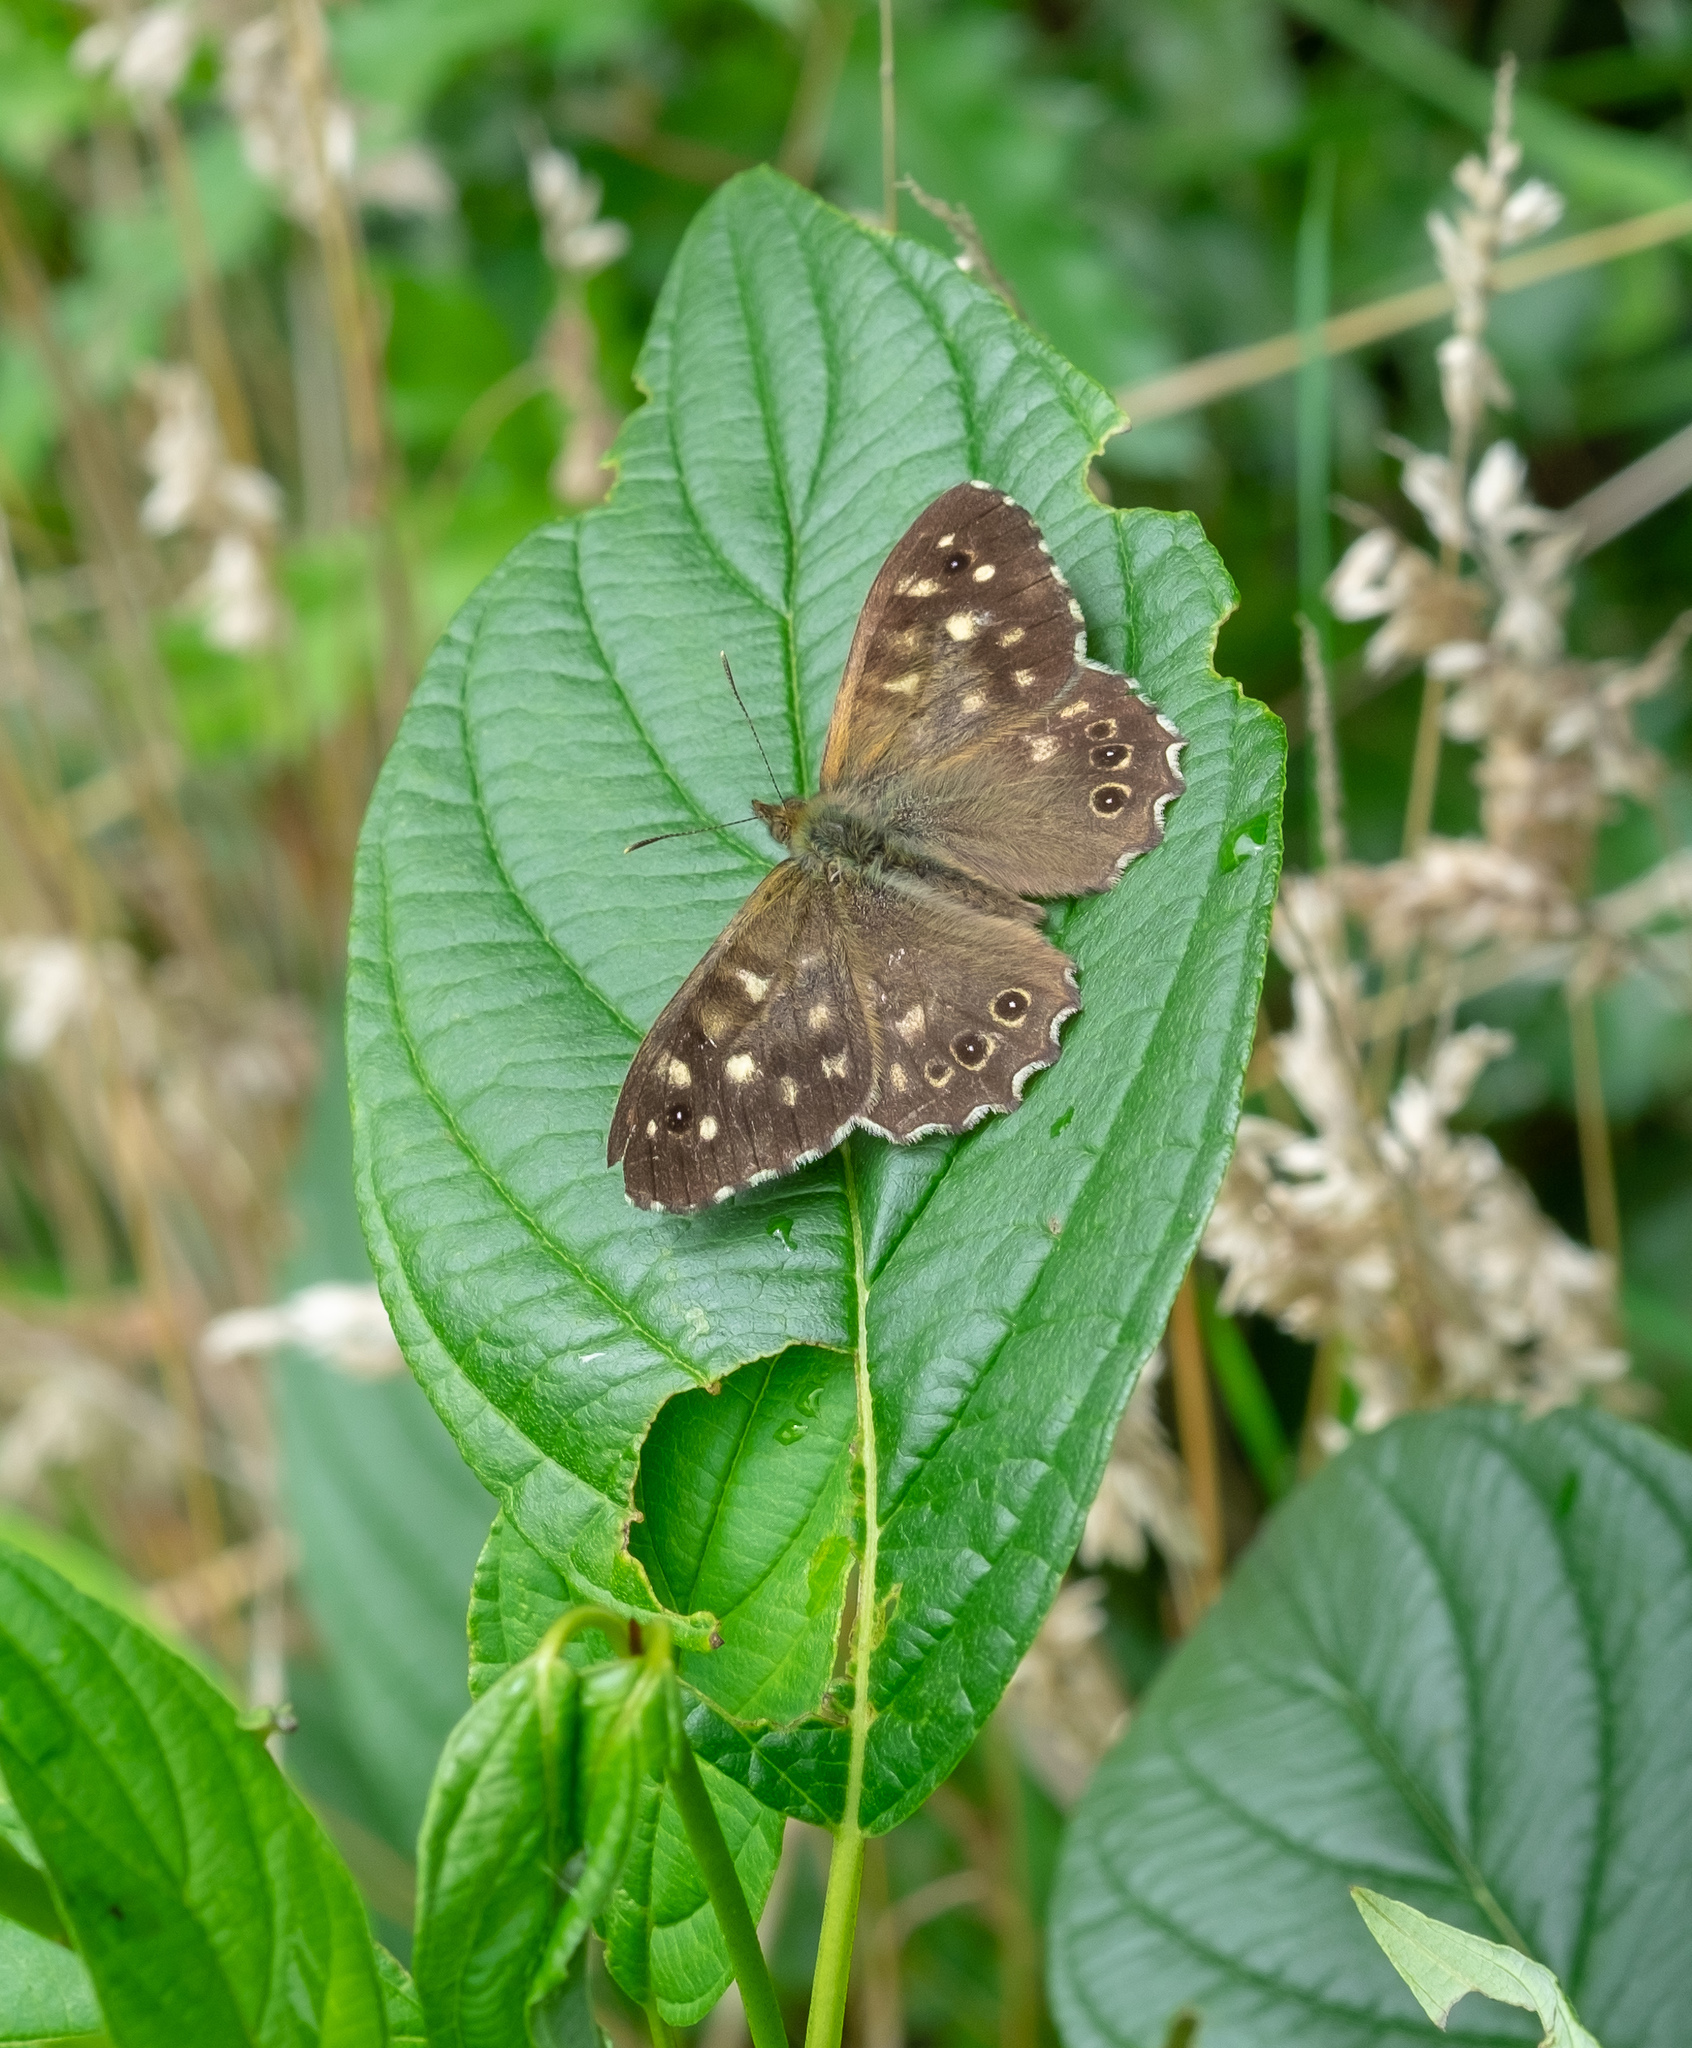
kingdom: Animalia
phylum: Arthropoda
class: Insecta
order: Lepidoptera
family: Nymphalidae
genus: Pararge
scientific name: Pararge aegeria
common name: Speckled wood
